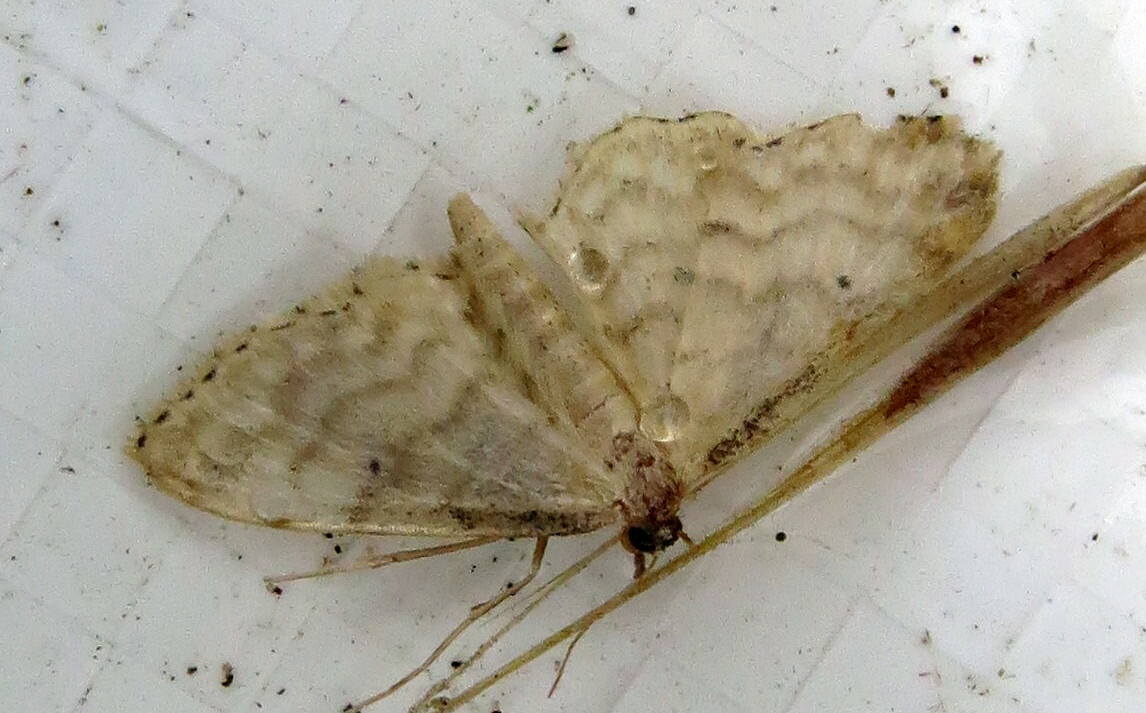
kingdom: Animalia
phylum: Arthropoda
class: Insecta
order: Lepidoptera
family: Geometridae
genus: Idaea
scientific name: Idaea fuscovenosa
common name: Dwarf cream wave
